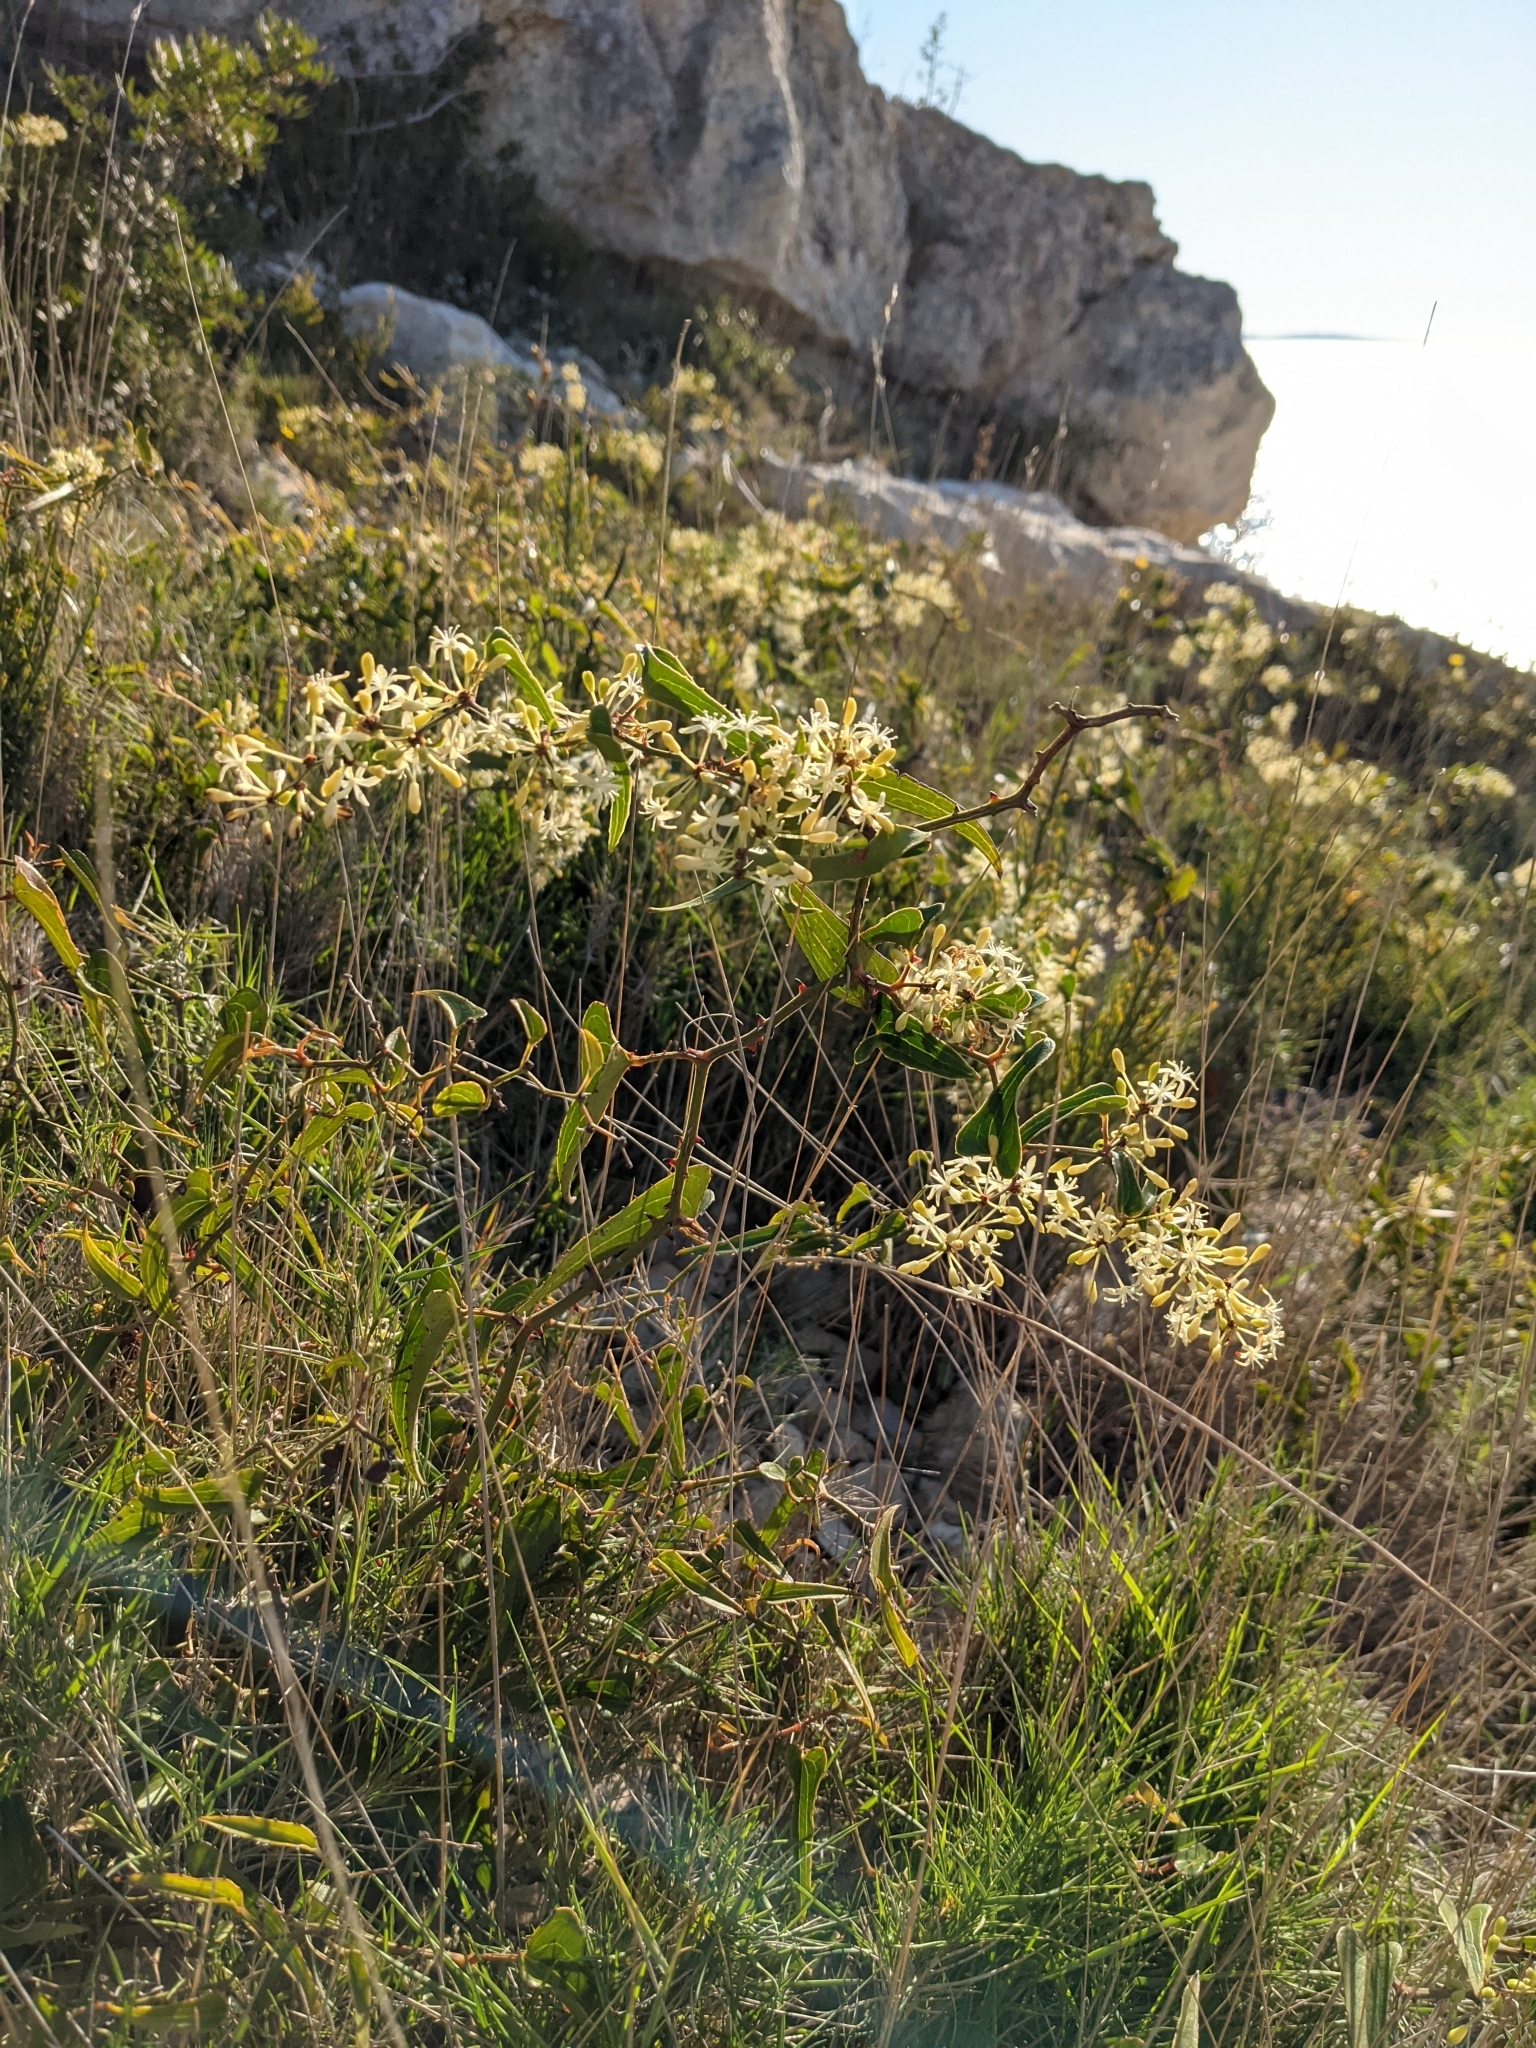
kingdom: Plantae
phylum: Tracheophyta
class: Liliopsida
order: Liliales
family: Smilacaceae
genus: Smilax
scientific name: Smilax aspera
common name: Common smilax
